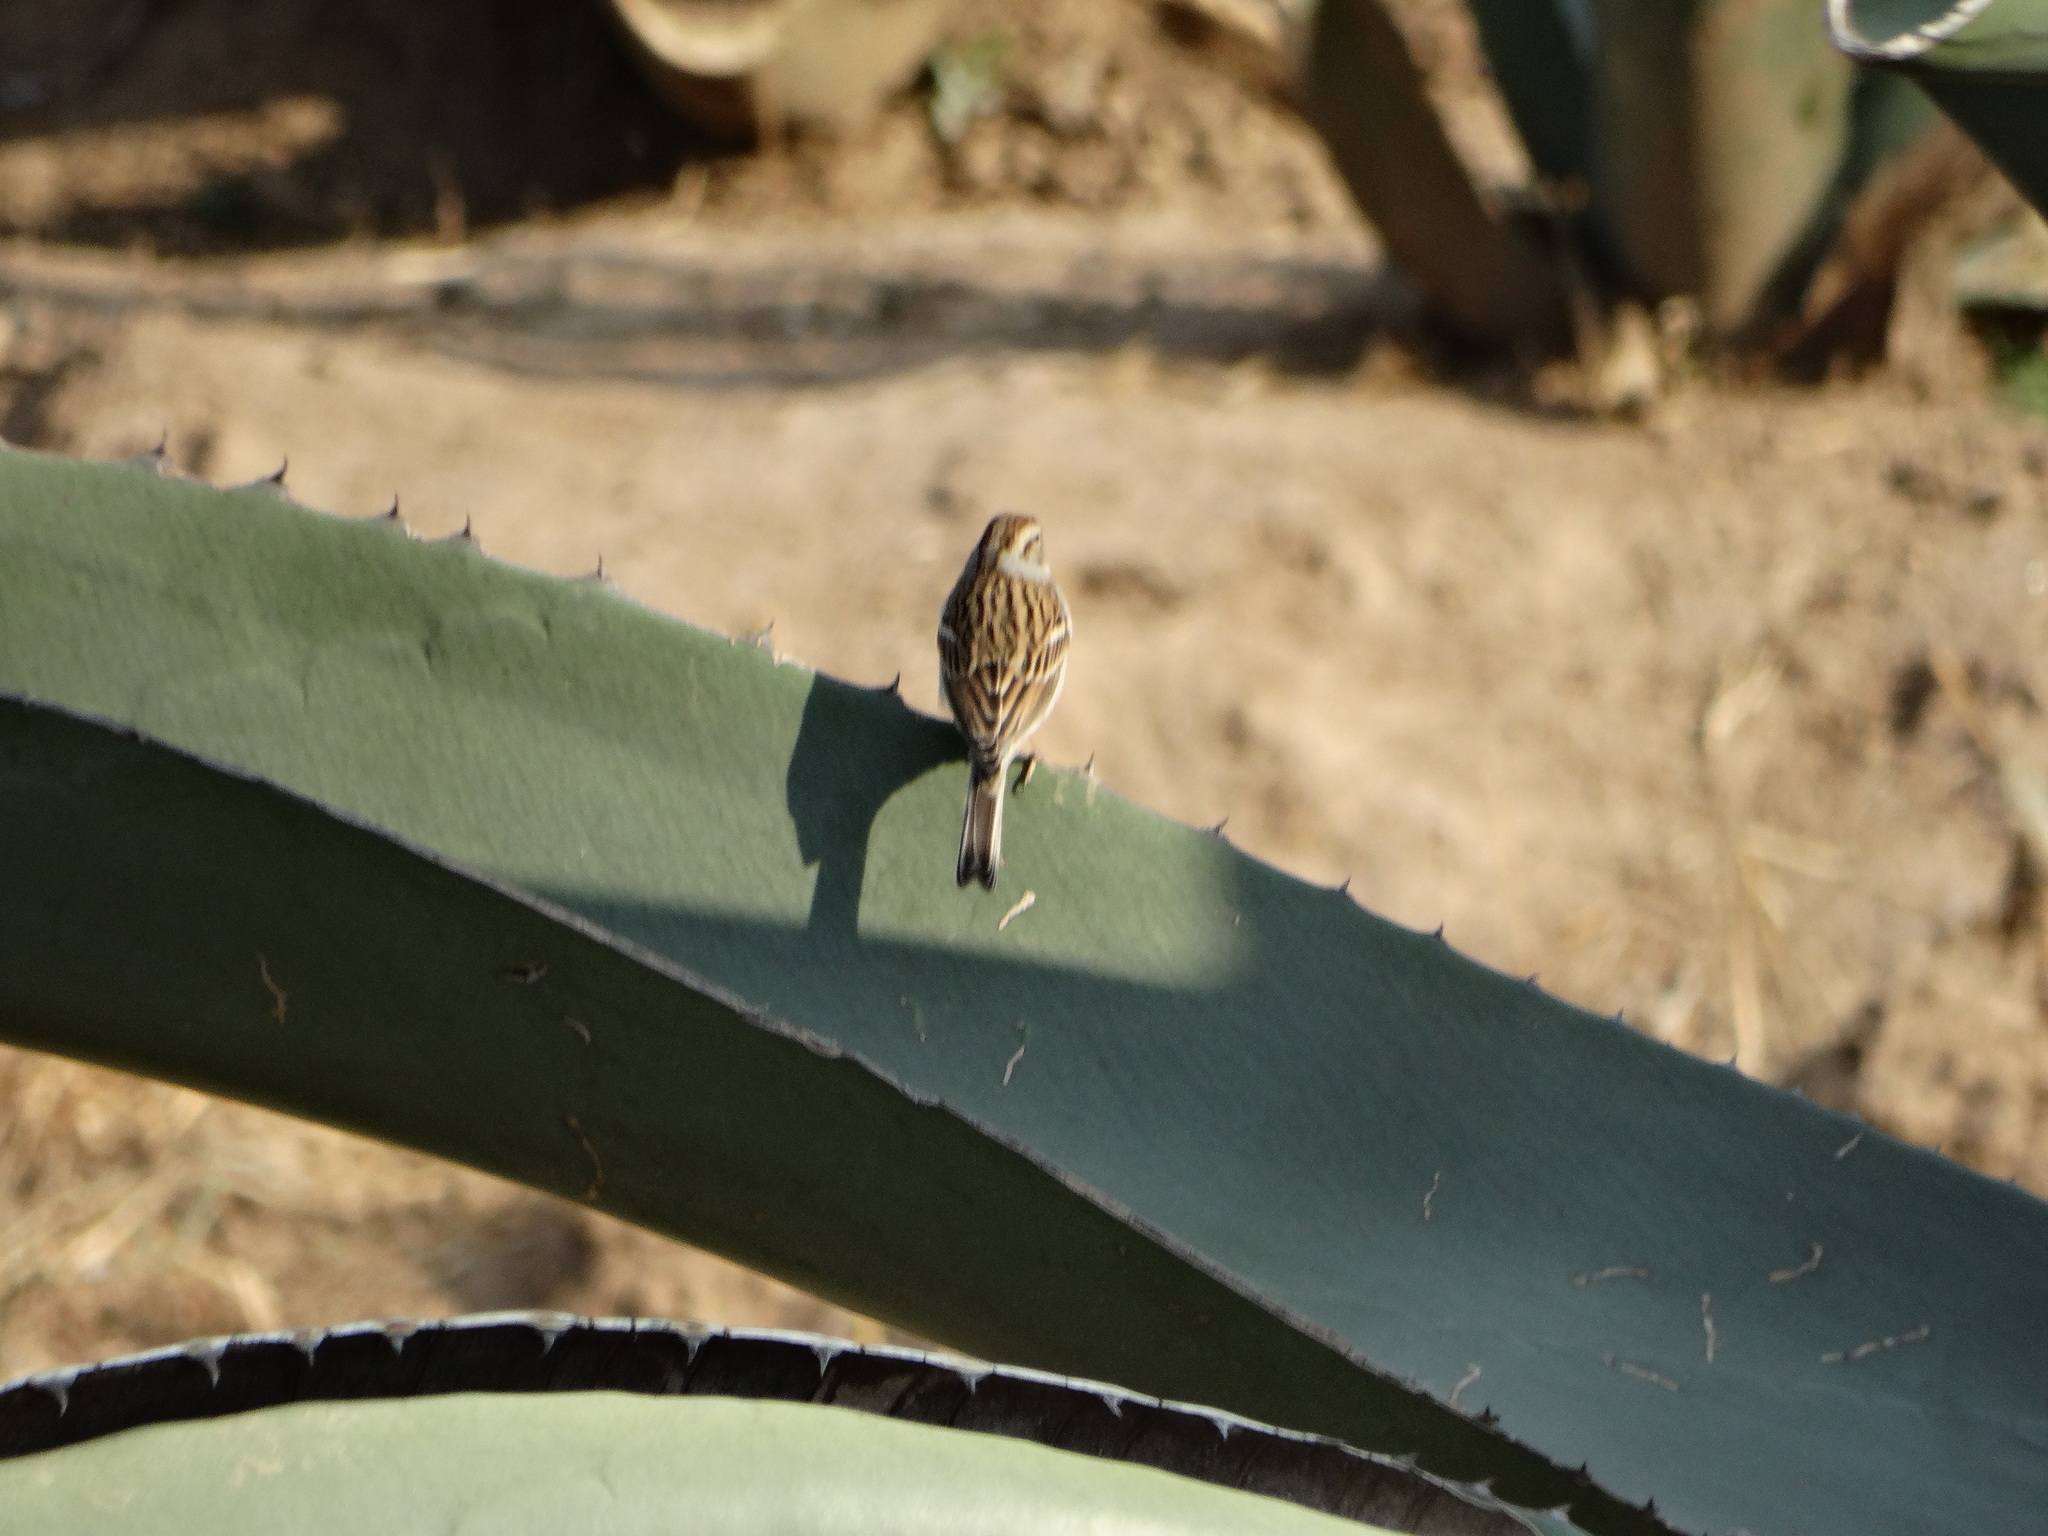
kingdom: Animalia
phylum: Chordata
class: Aves
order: Passeriformes
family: Passerellidae
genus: Spizella
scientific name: Spizella passerina
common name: Chipping sparrow
